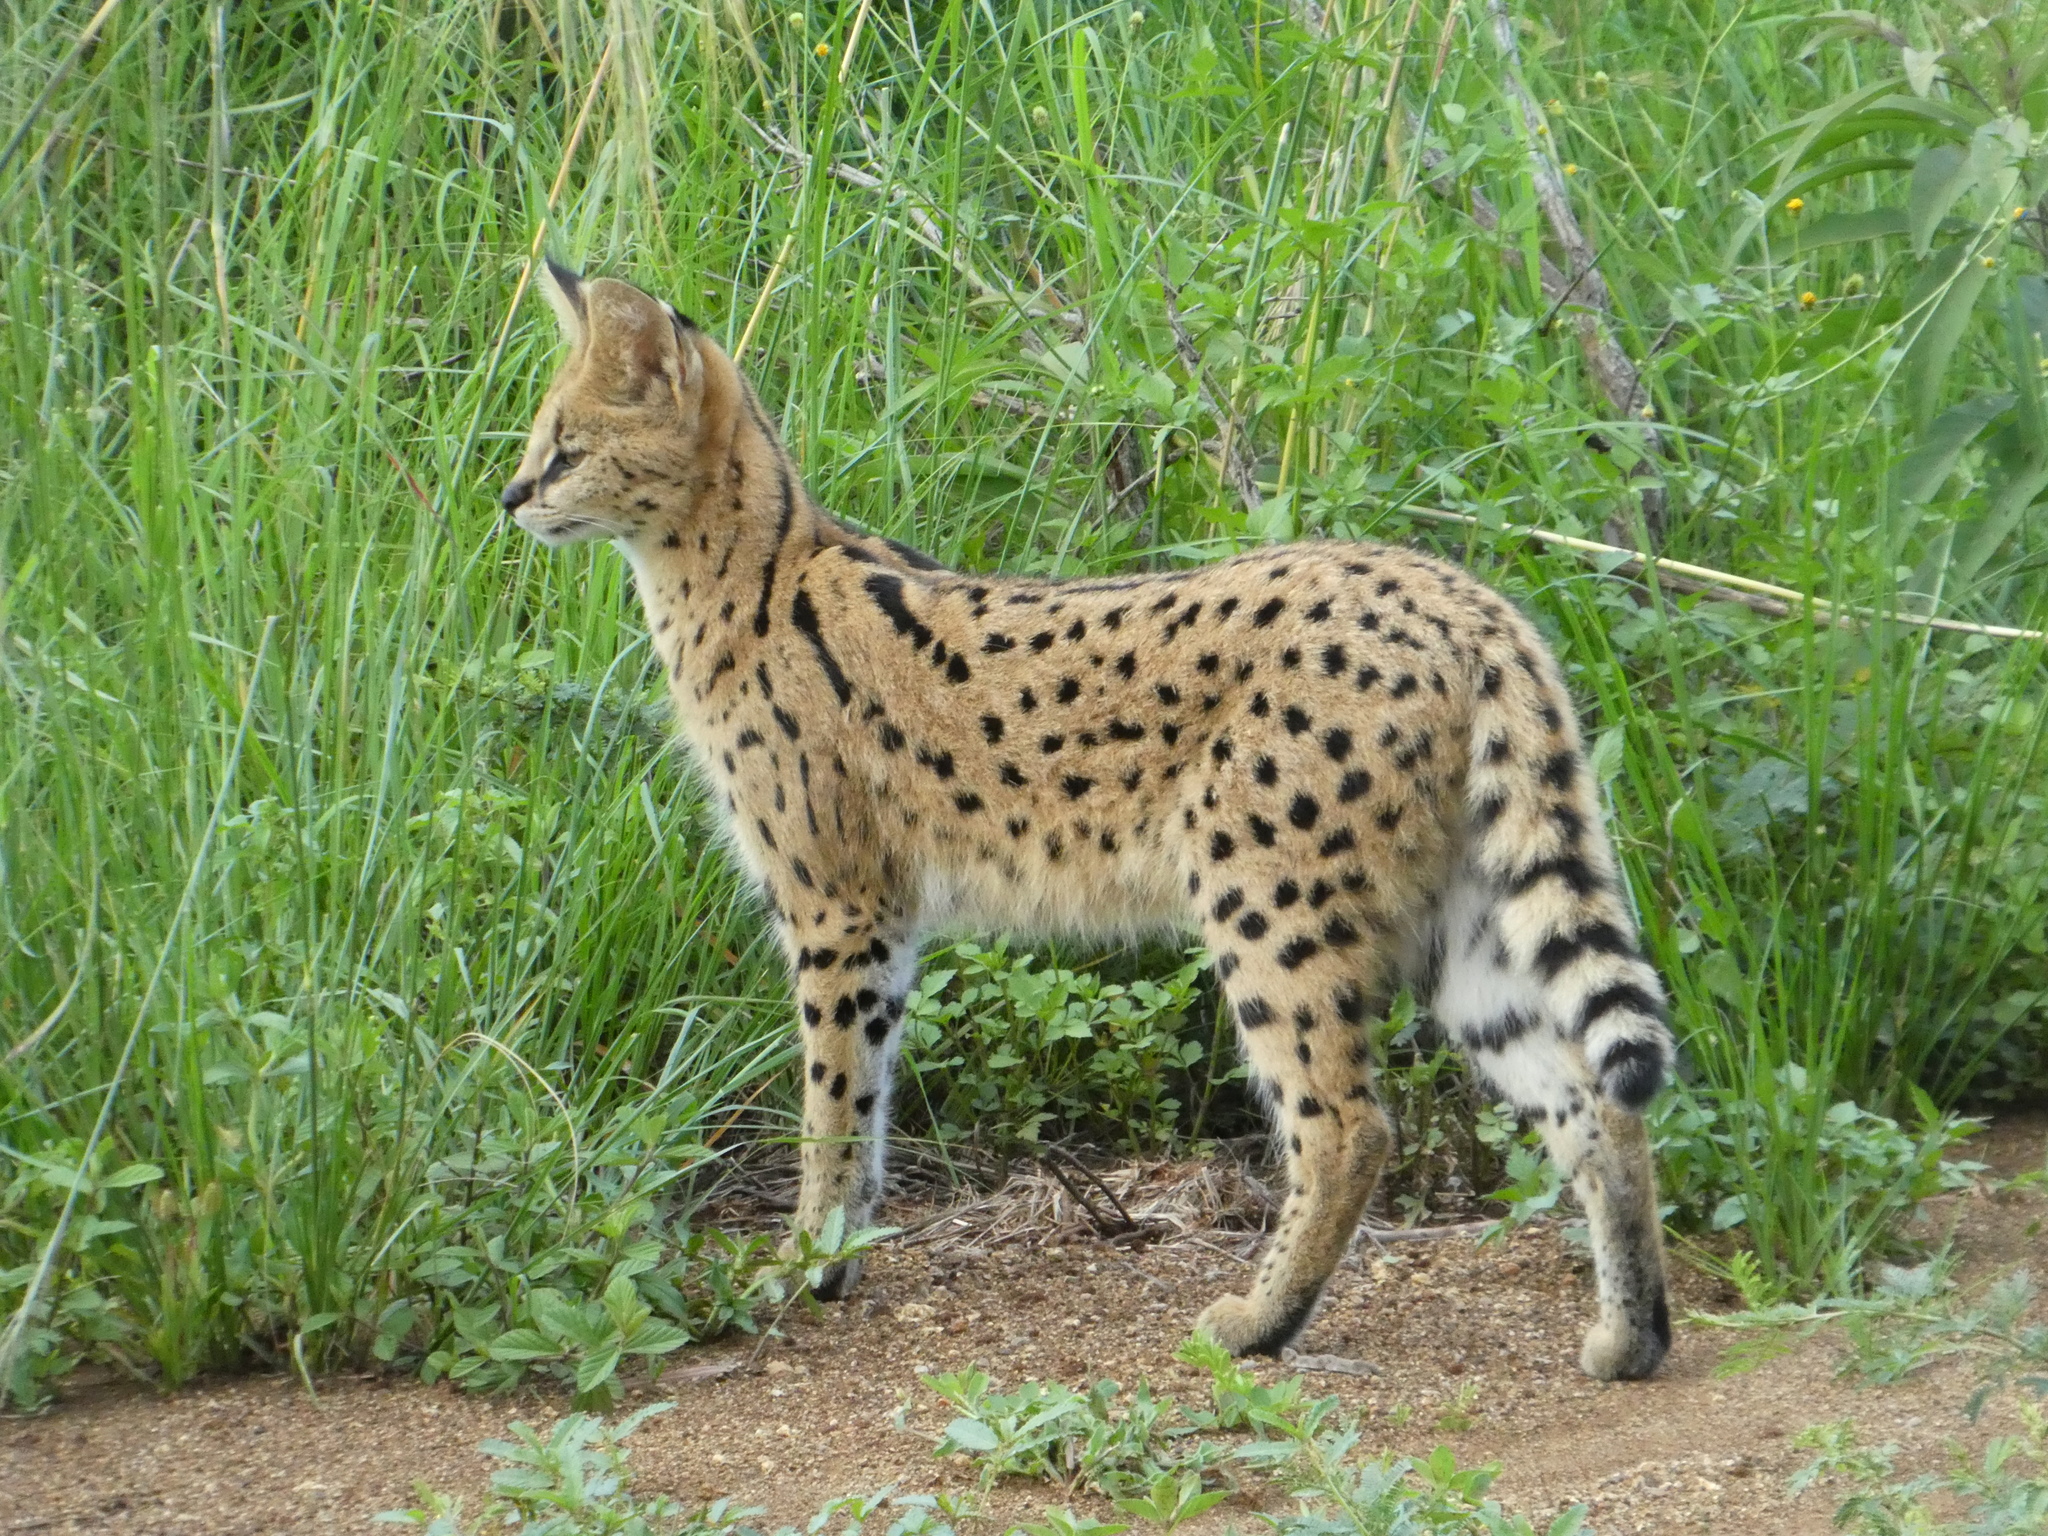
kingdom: Animalia
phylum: Chordata
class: Mammalia
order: Carnivora
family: Felidae
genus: Leptailurus
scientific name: Leptailurus serval
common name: Serval
